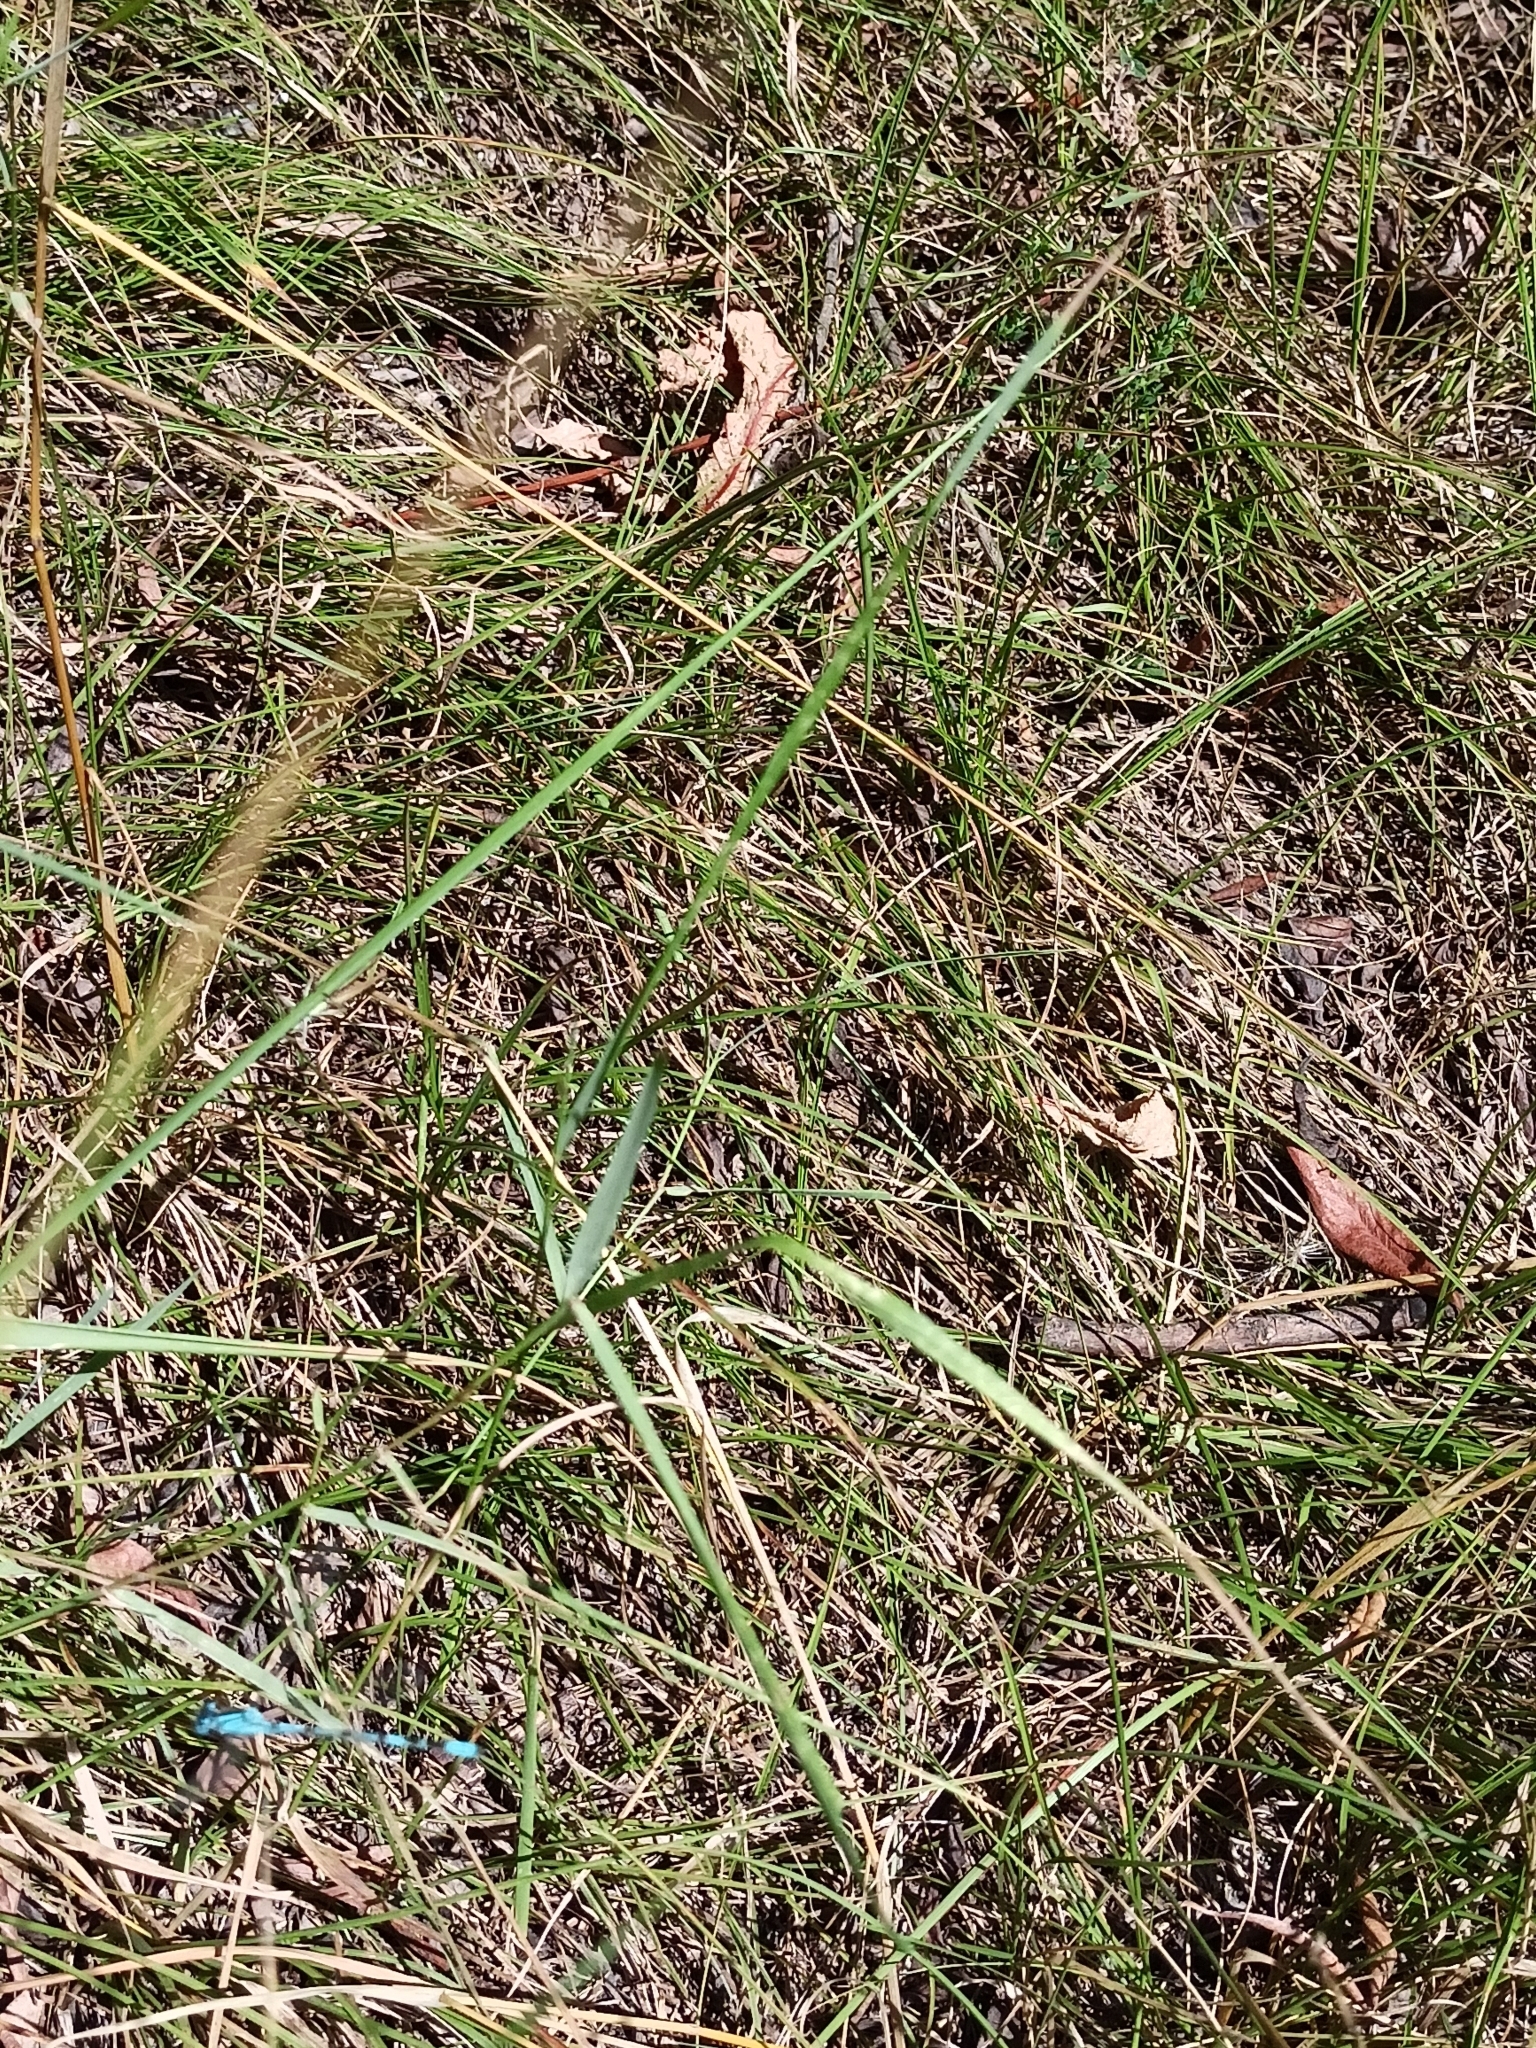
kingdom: Animalia
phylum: Arthropoda
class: Insecta
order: Odonata
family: Coenagrionidae
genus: Enallagma
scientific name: Enallagma cyathigerum
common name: Common blue damselfly
